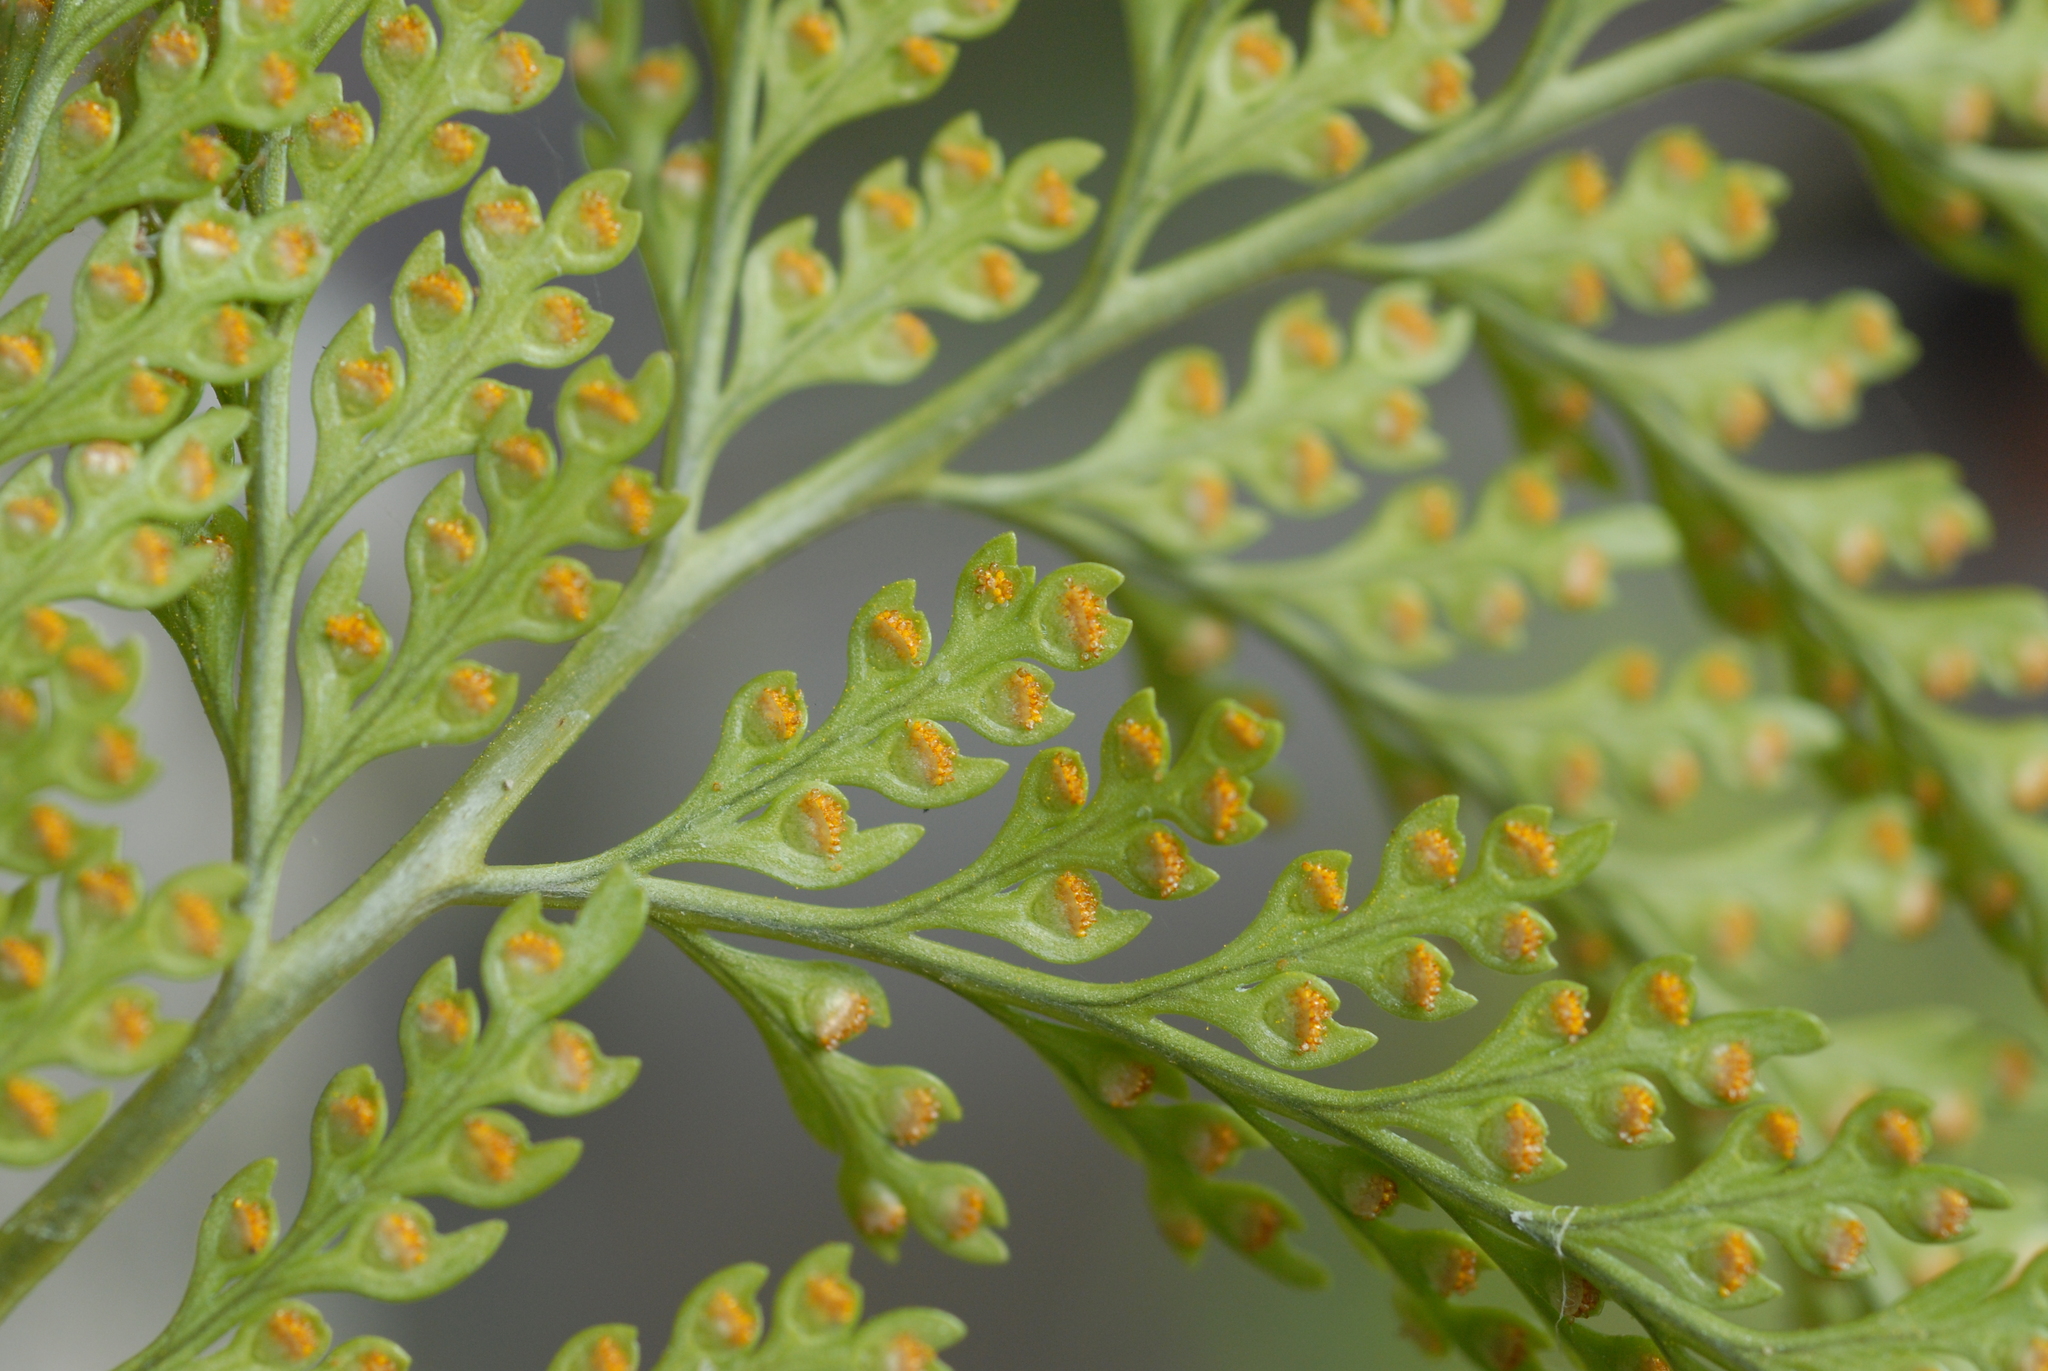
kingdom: Plantae
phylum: Tracheophyta
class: Polypodiopsida
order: Polypodiales
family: Davalliaceae
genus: Davallia
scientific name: Davallia griffithiana
